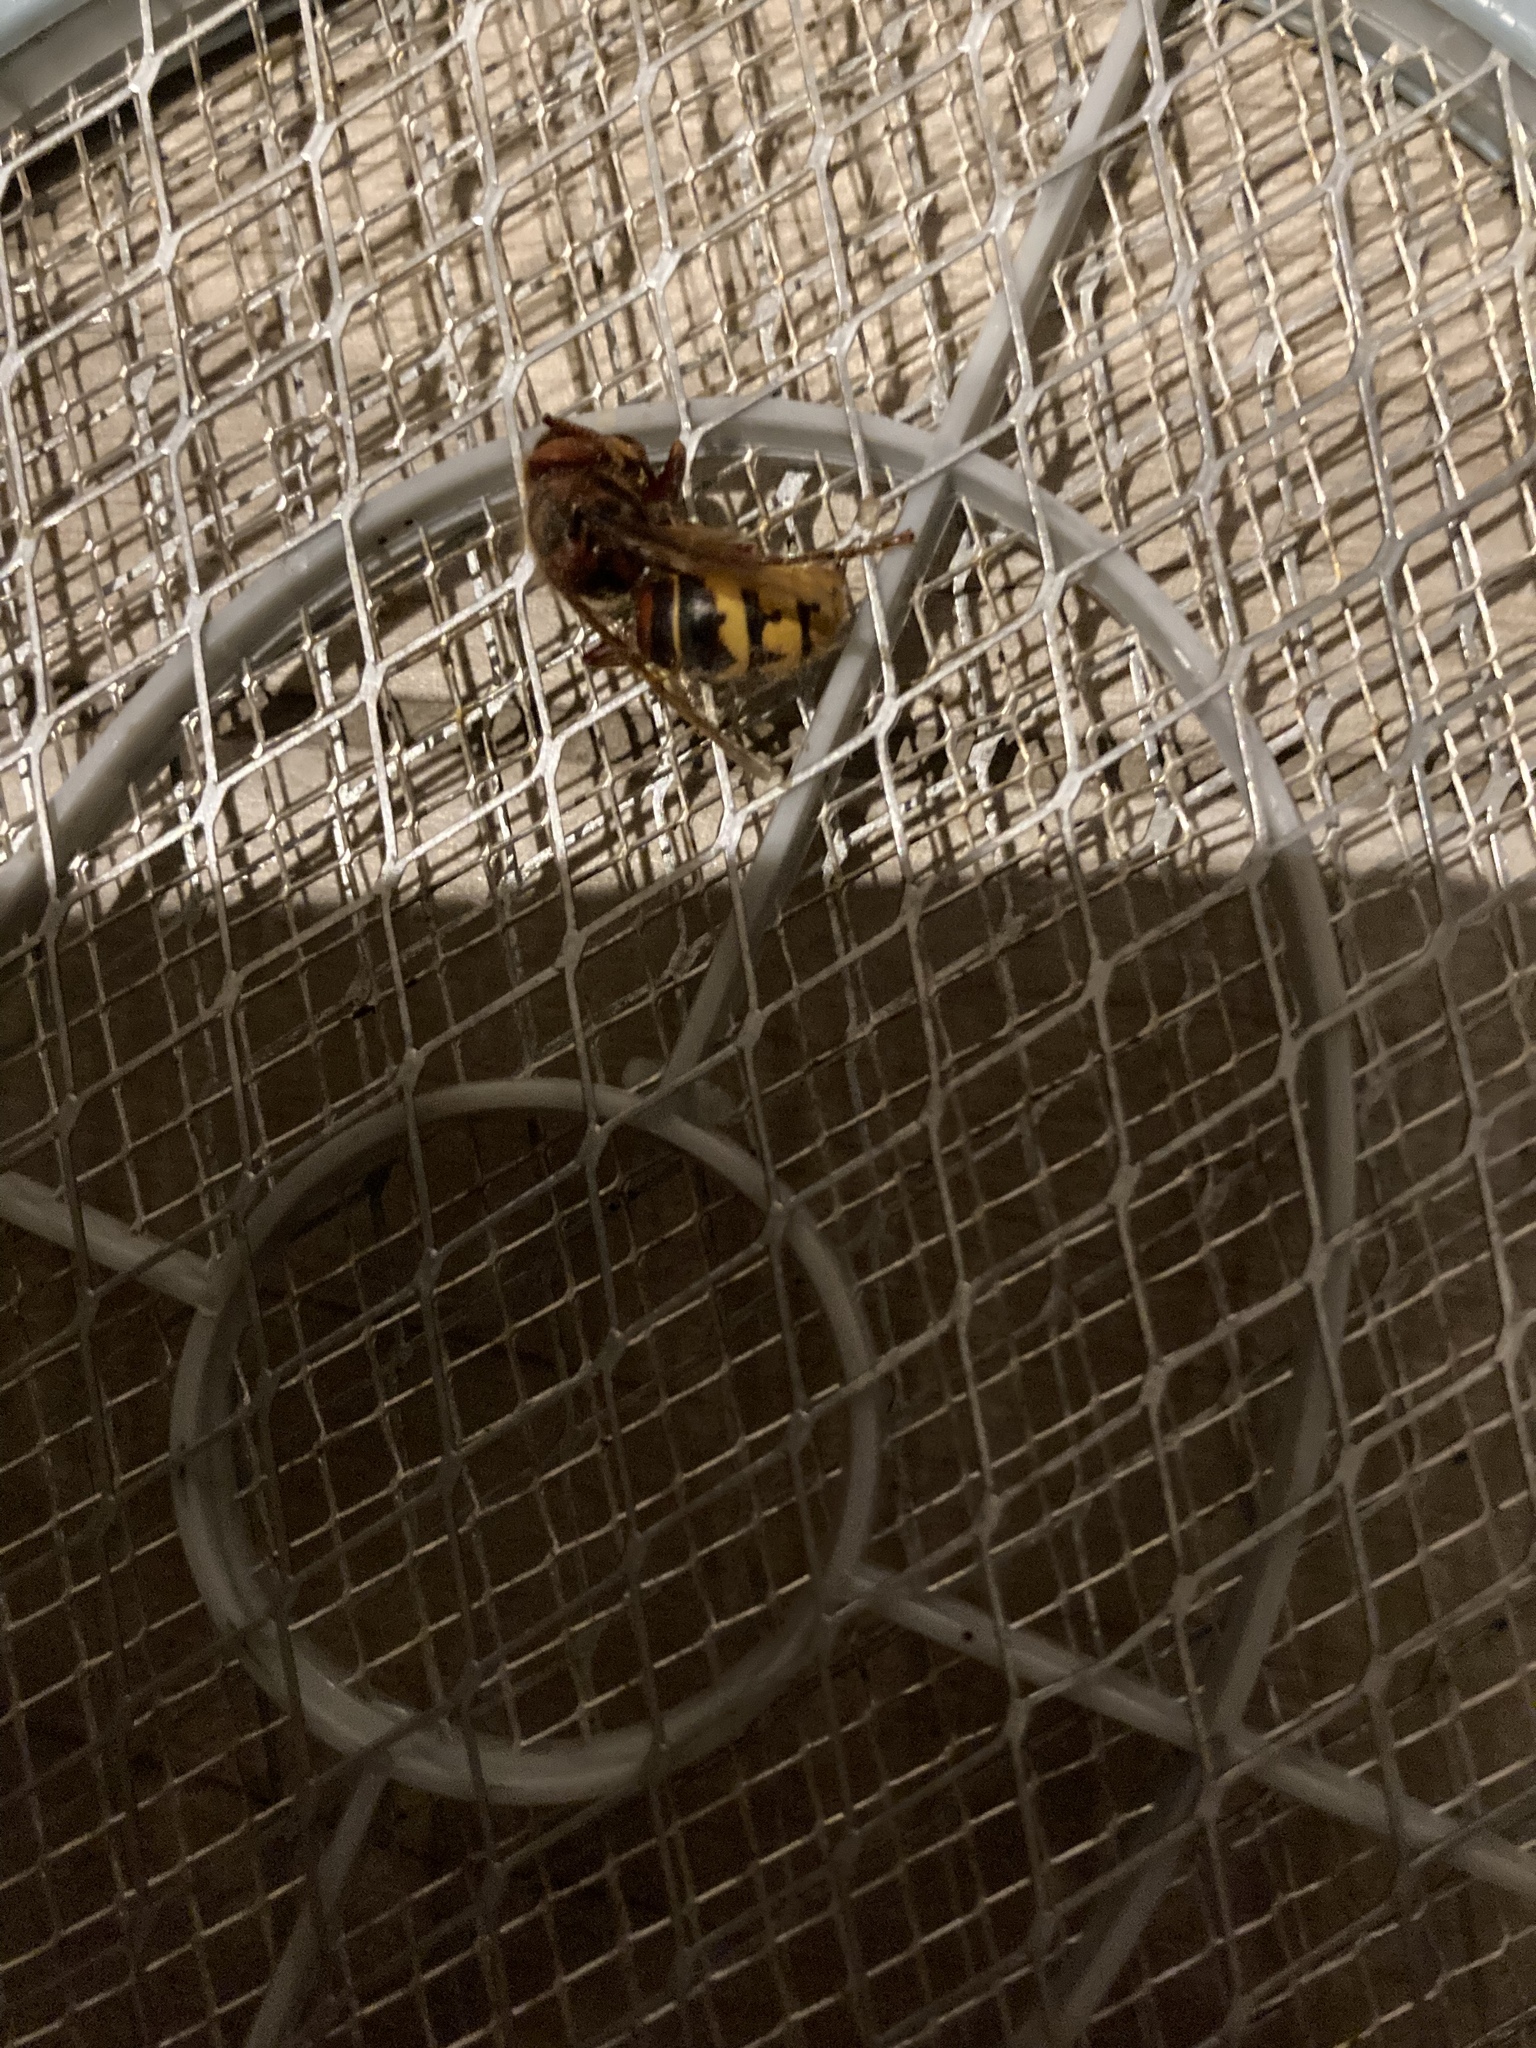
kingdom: Animalia
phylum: Arthropoda
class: Insecta
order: Hymenoptera
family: Vespidae
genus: Vespa
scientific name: Vespa crabro
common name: Hornet
